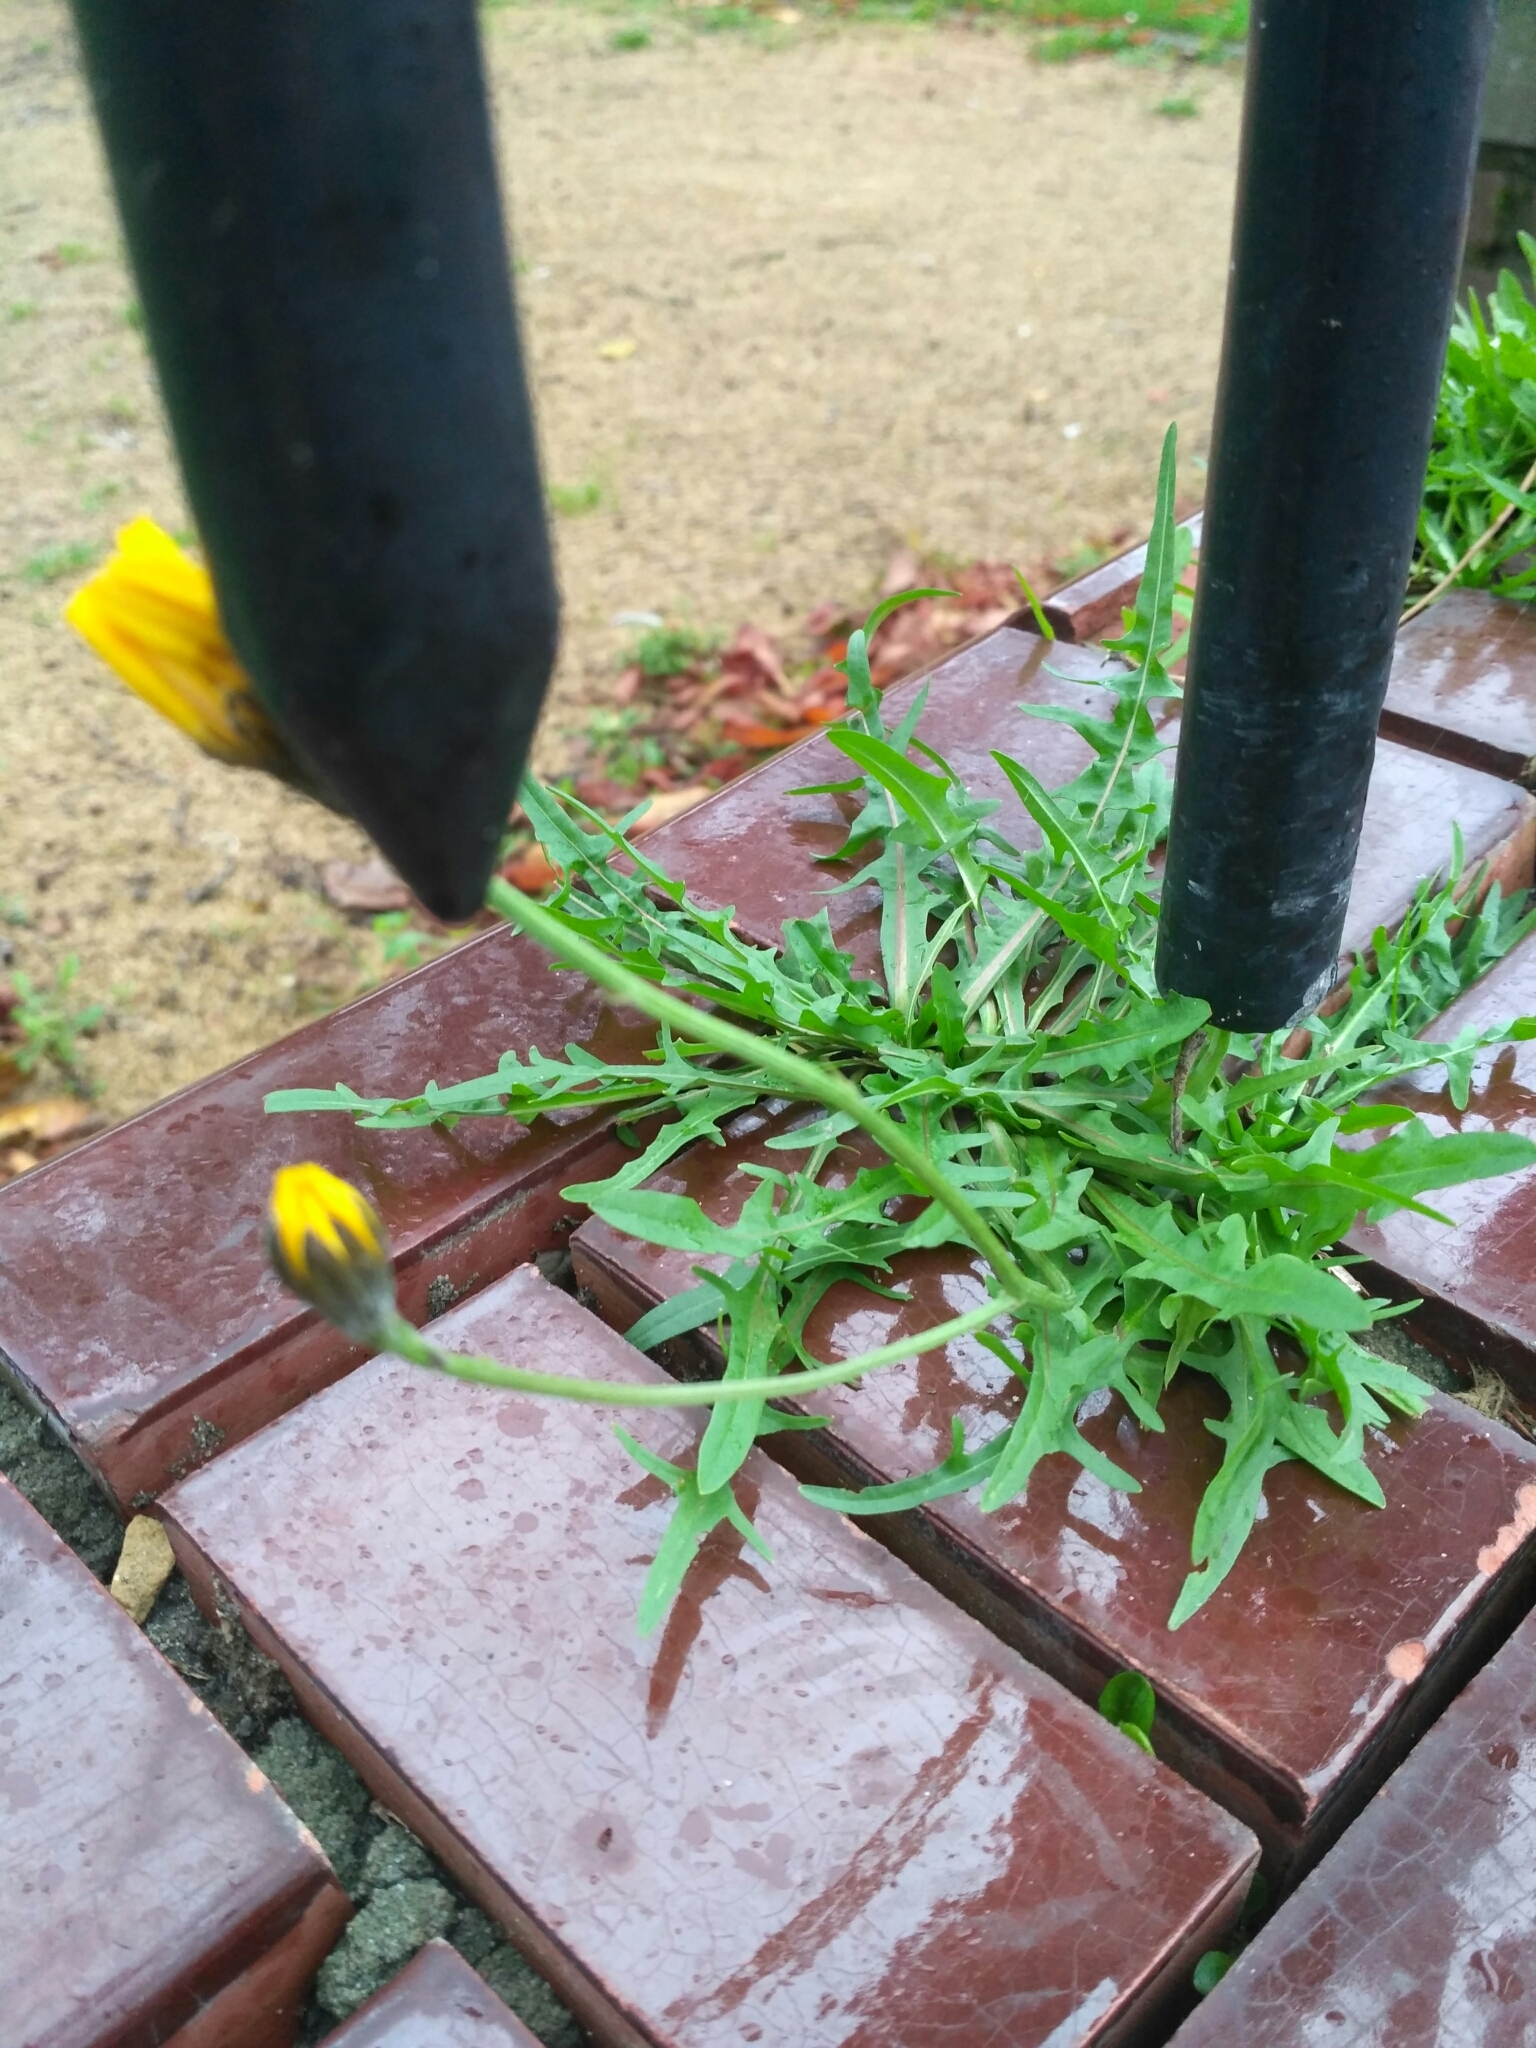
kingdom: Plantae
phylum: Tracheophyta
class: Magnoliopsida
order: Asterales
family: Asteraceae
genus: Scorzoneroides
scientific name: Scorzoneroides autumnalis
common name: Autumn hawkbit
